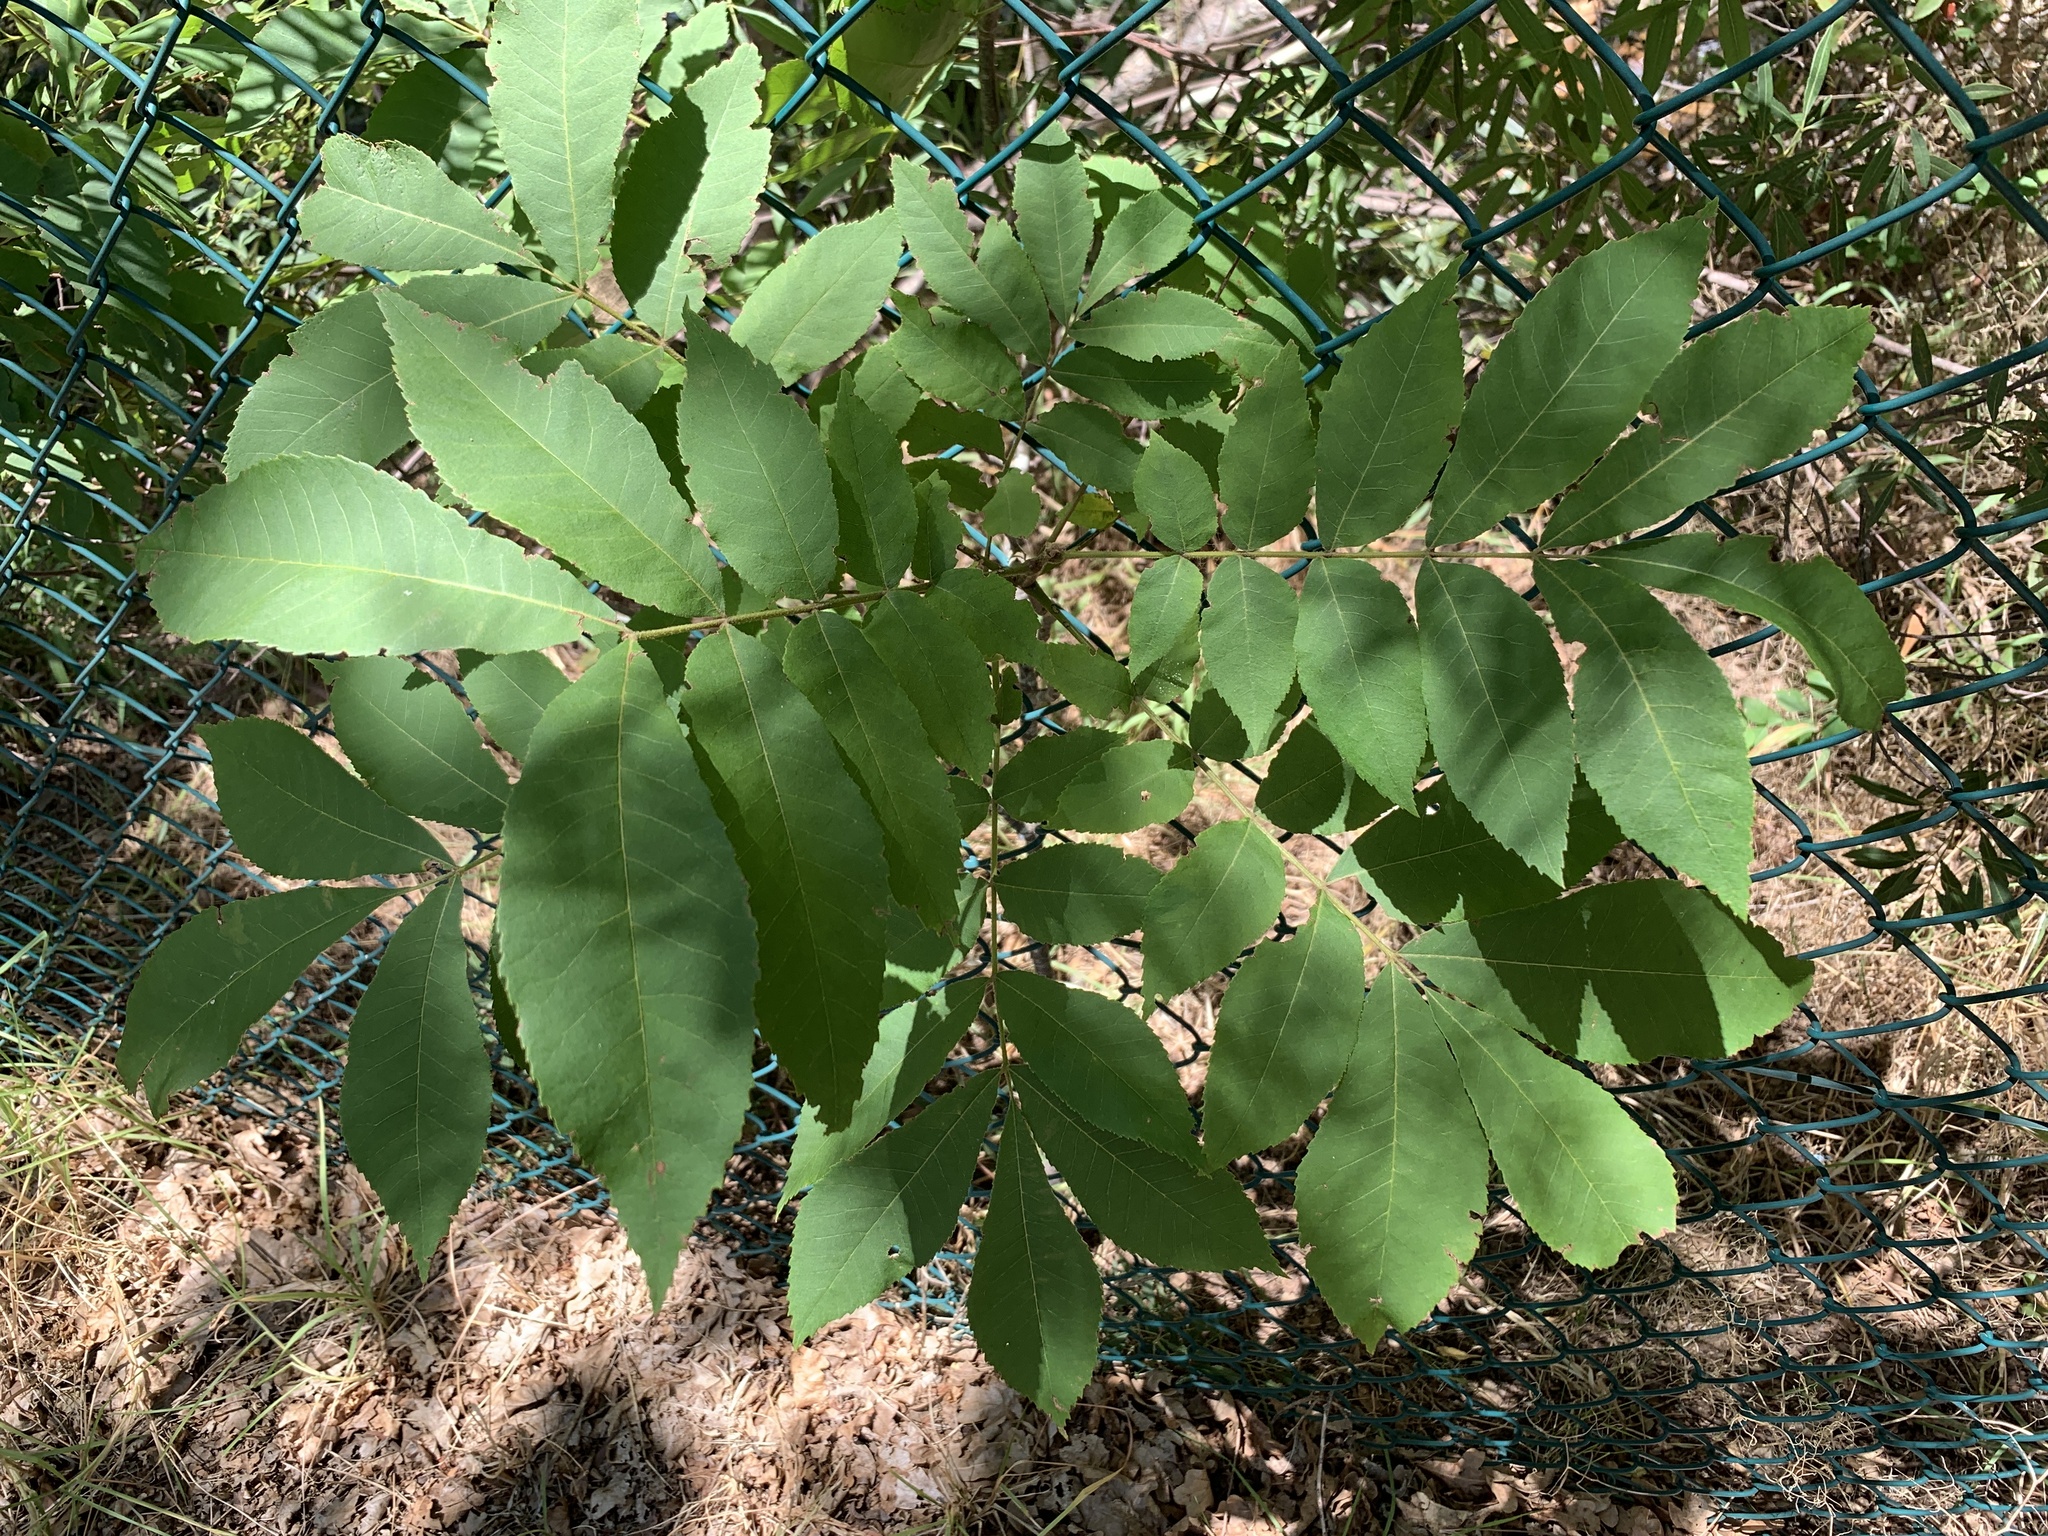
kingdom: Plantae
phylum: Tracheophyta
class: Magnoliopsida
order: Fagales
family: Juglandaceae
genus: Carya
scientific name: Carya illinoinensis
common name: Pecan
